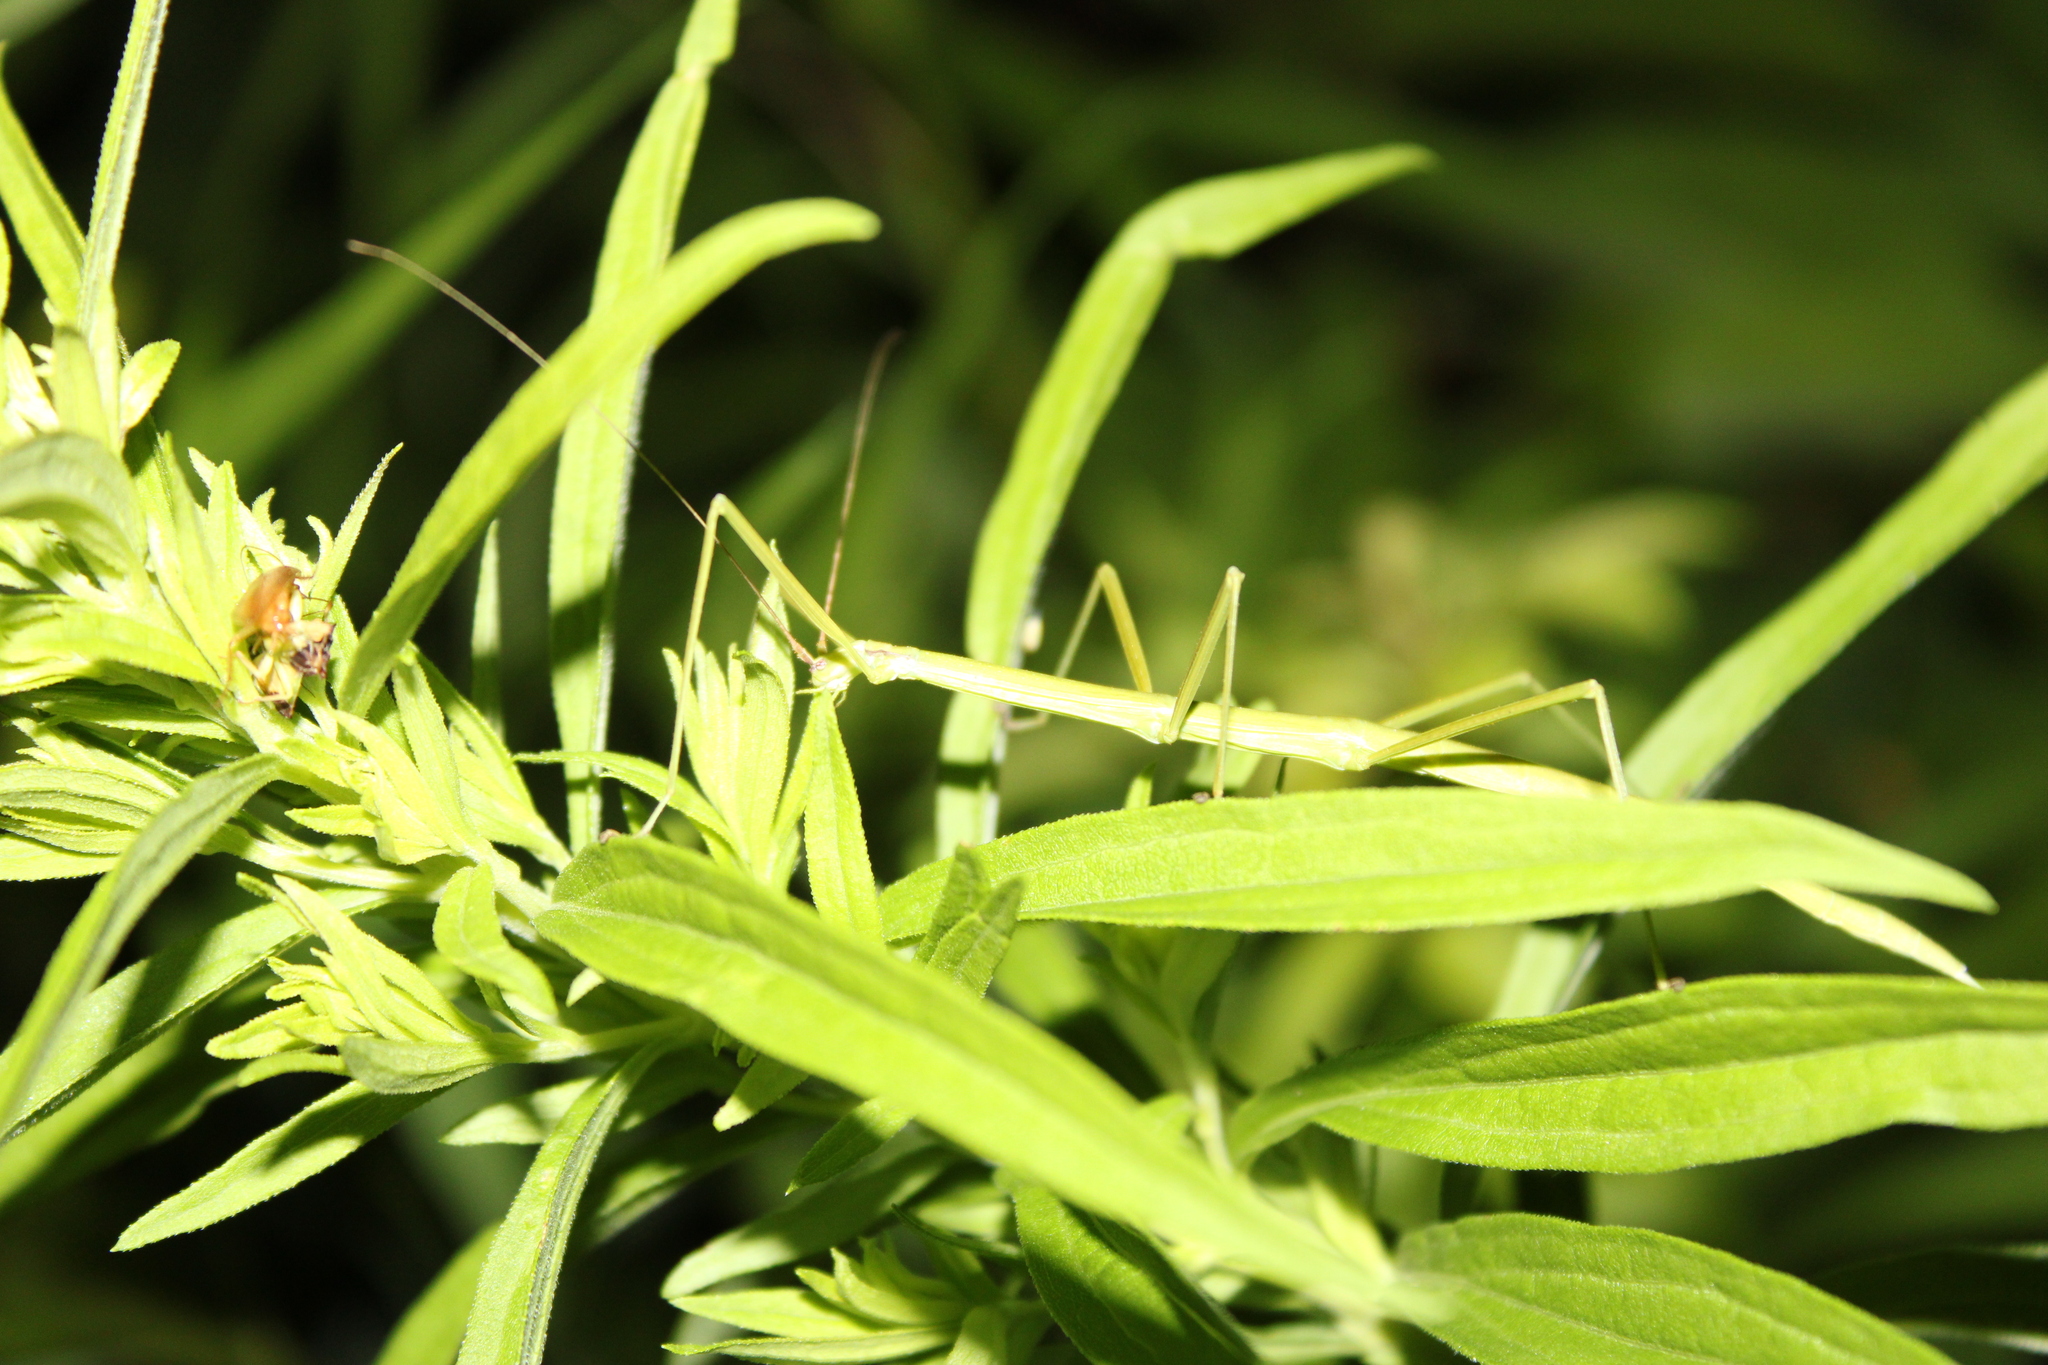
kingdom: Animalia
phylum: Arthropoda
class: Insecta
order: Phasmida
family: Diapheromeridae
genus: Manomera
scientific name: Manomera blatchleyi
